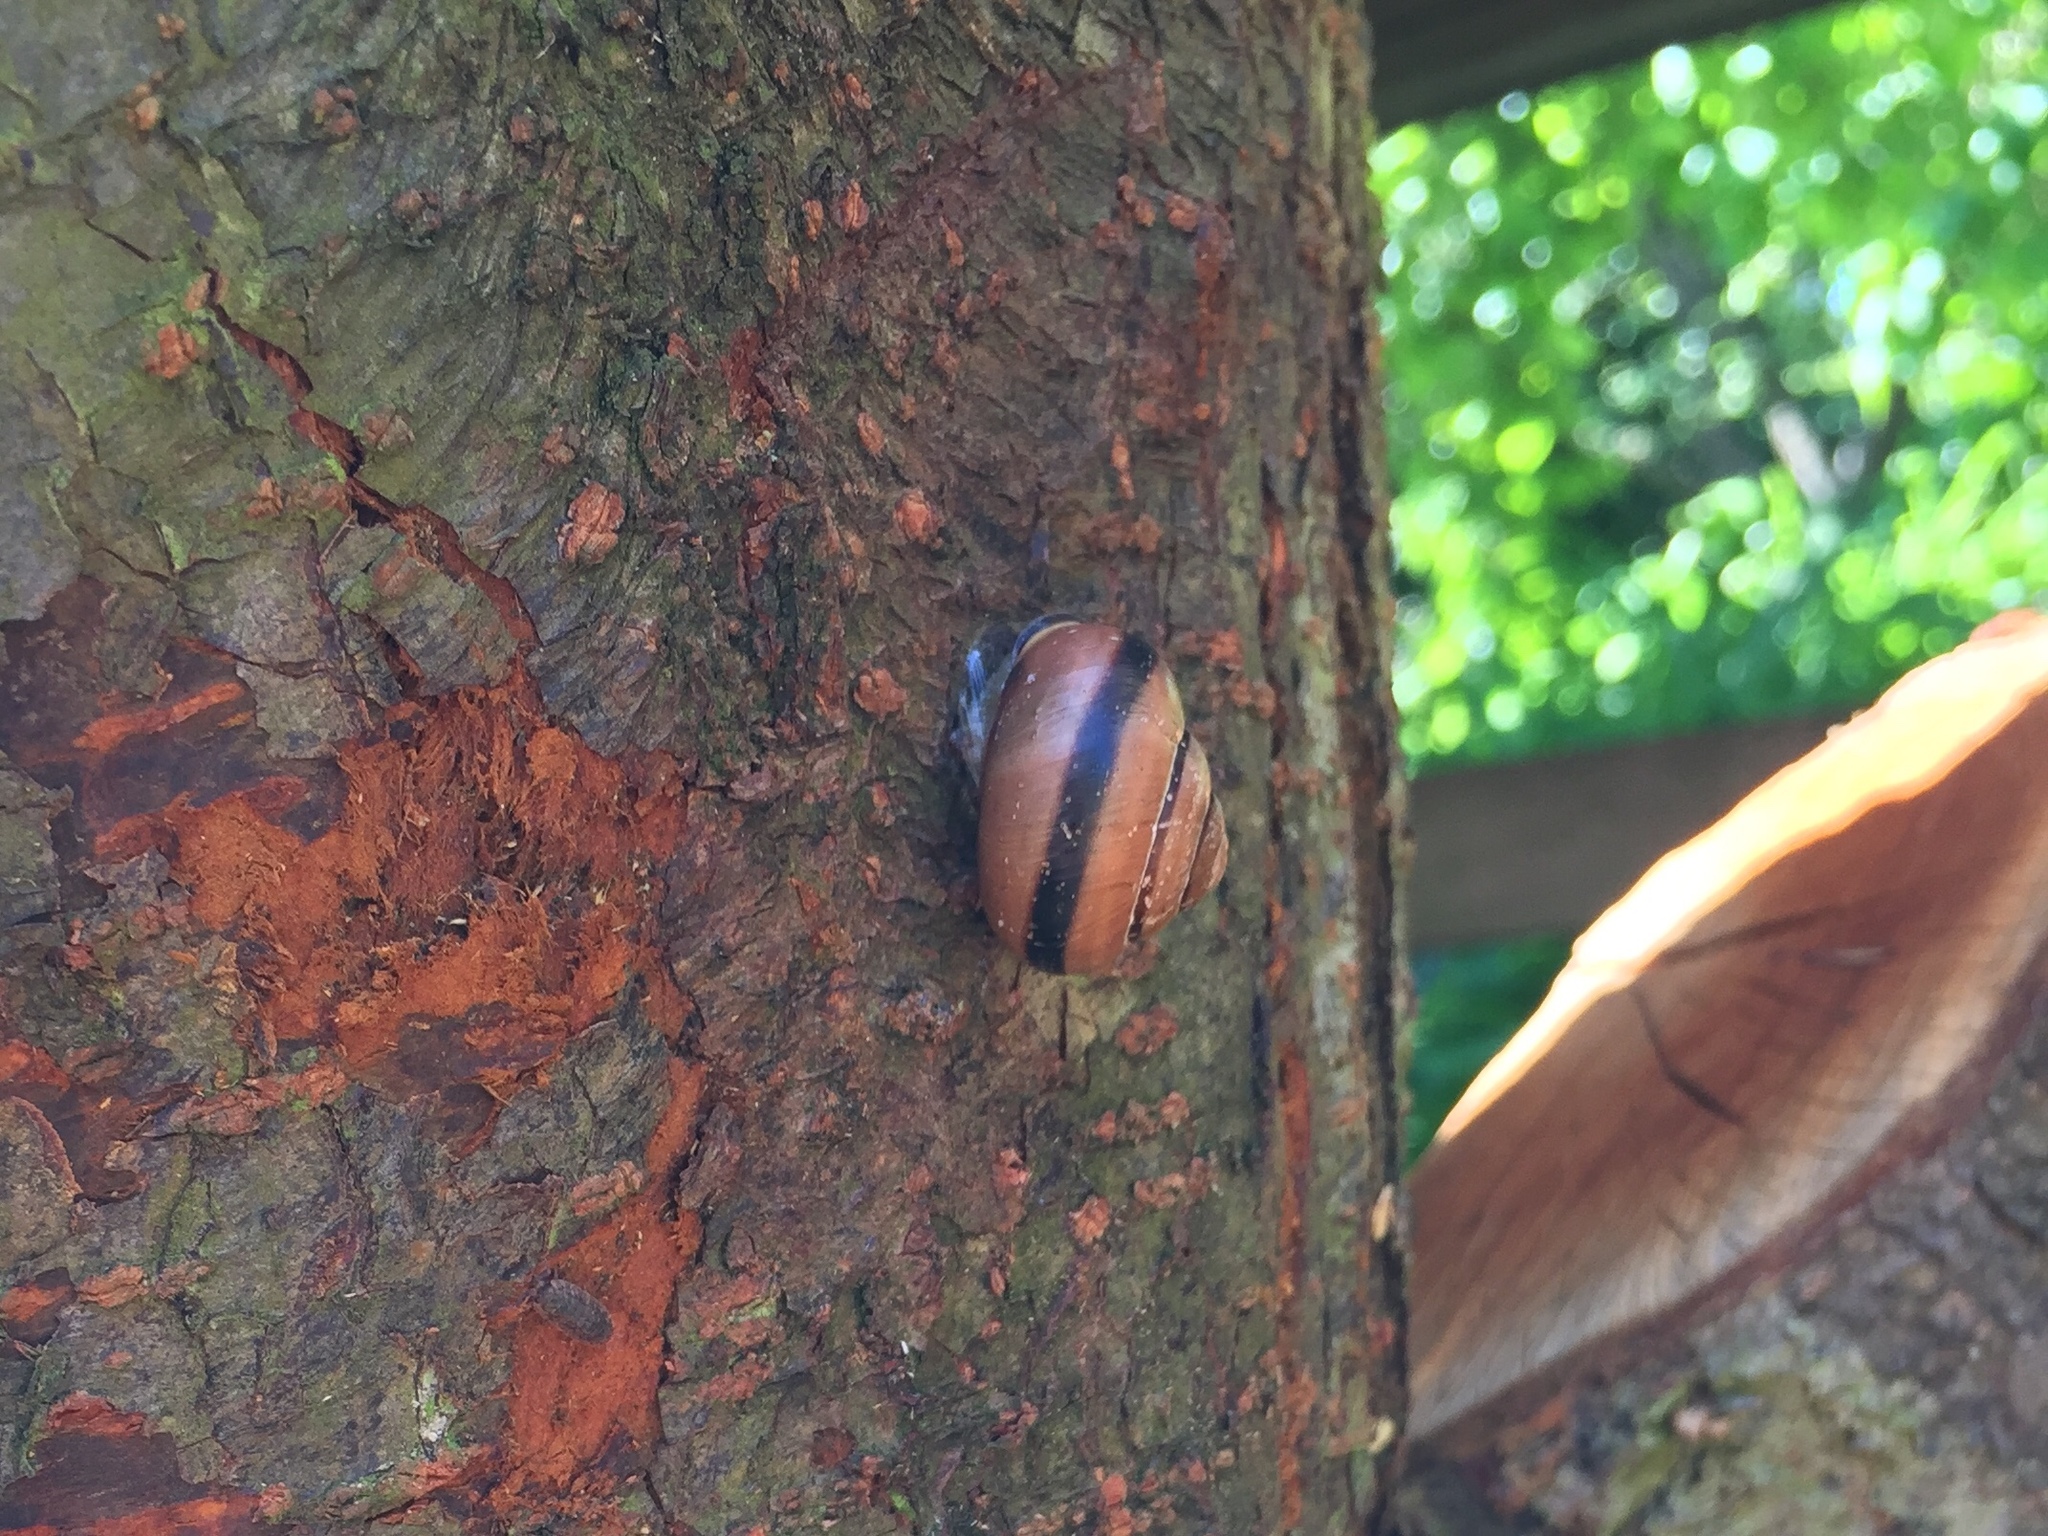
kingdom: Animalia
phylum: Mollusca
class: Gastropoda
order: Stylommatophora
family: Helicidae
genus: Cepaea
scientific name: Cepaea nemoralis
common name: Grovesnail
